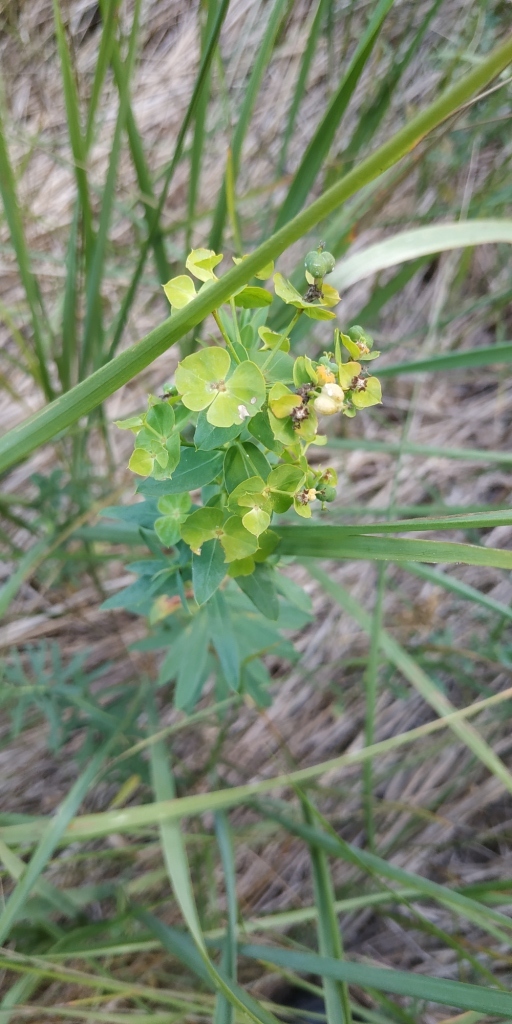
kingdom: Plantae
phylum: Tracheophyta
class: Magnoliopsida
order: Malpighiales
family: Euphorbiaceae
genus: Euphorbia
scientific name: Euphorbia virgata
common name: Leafy spurge
